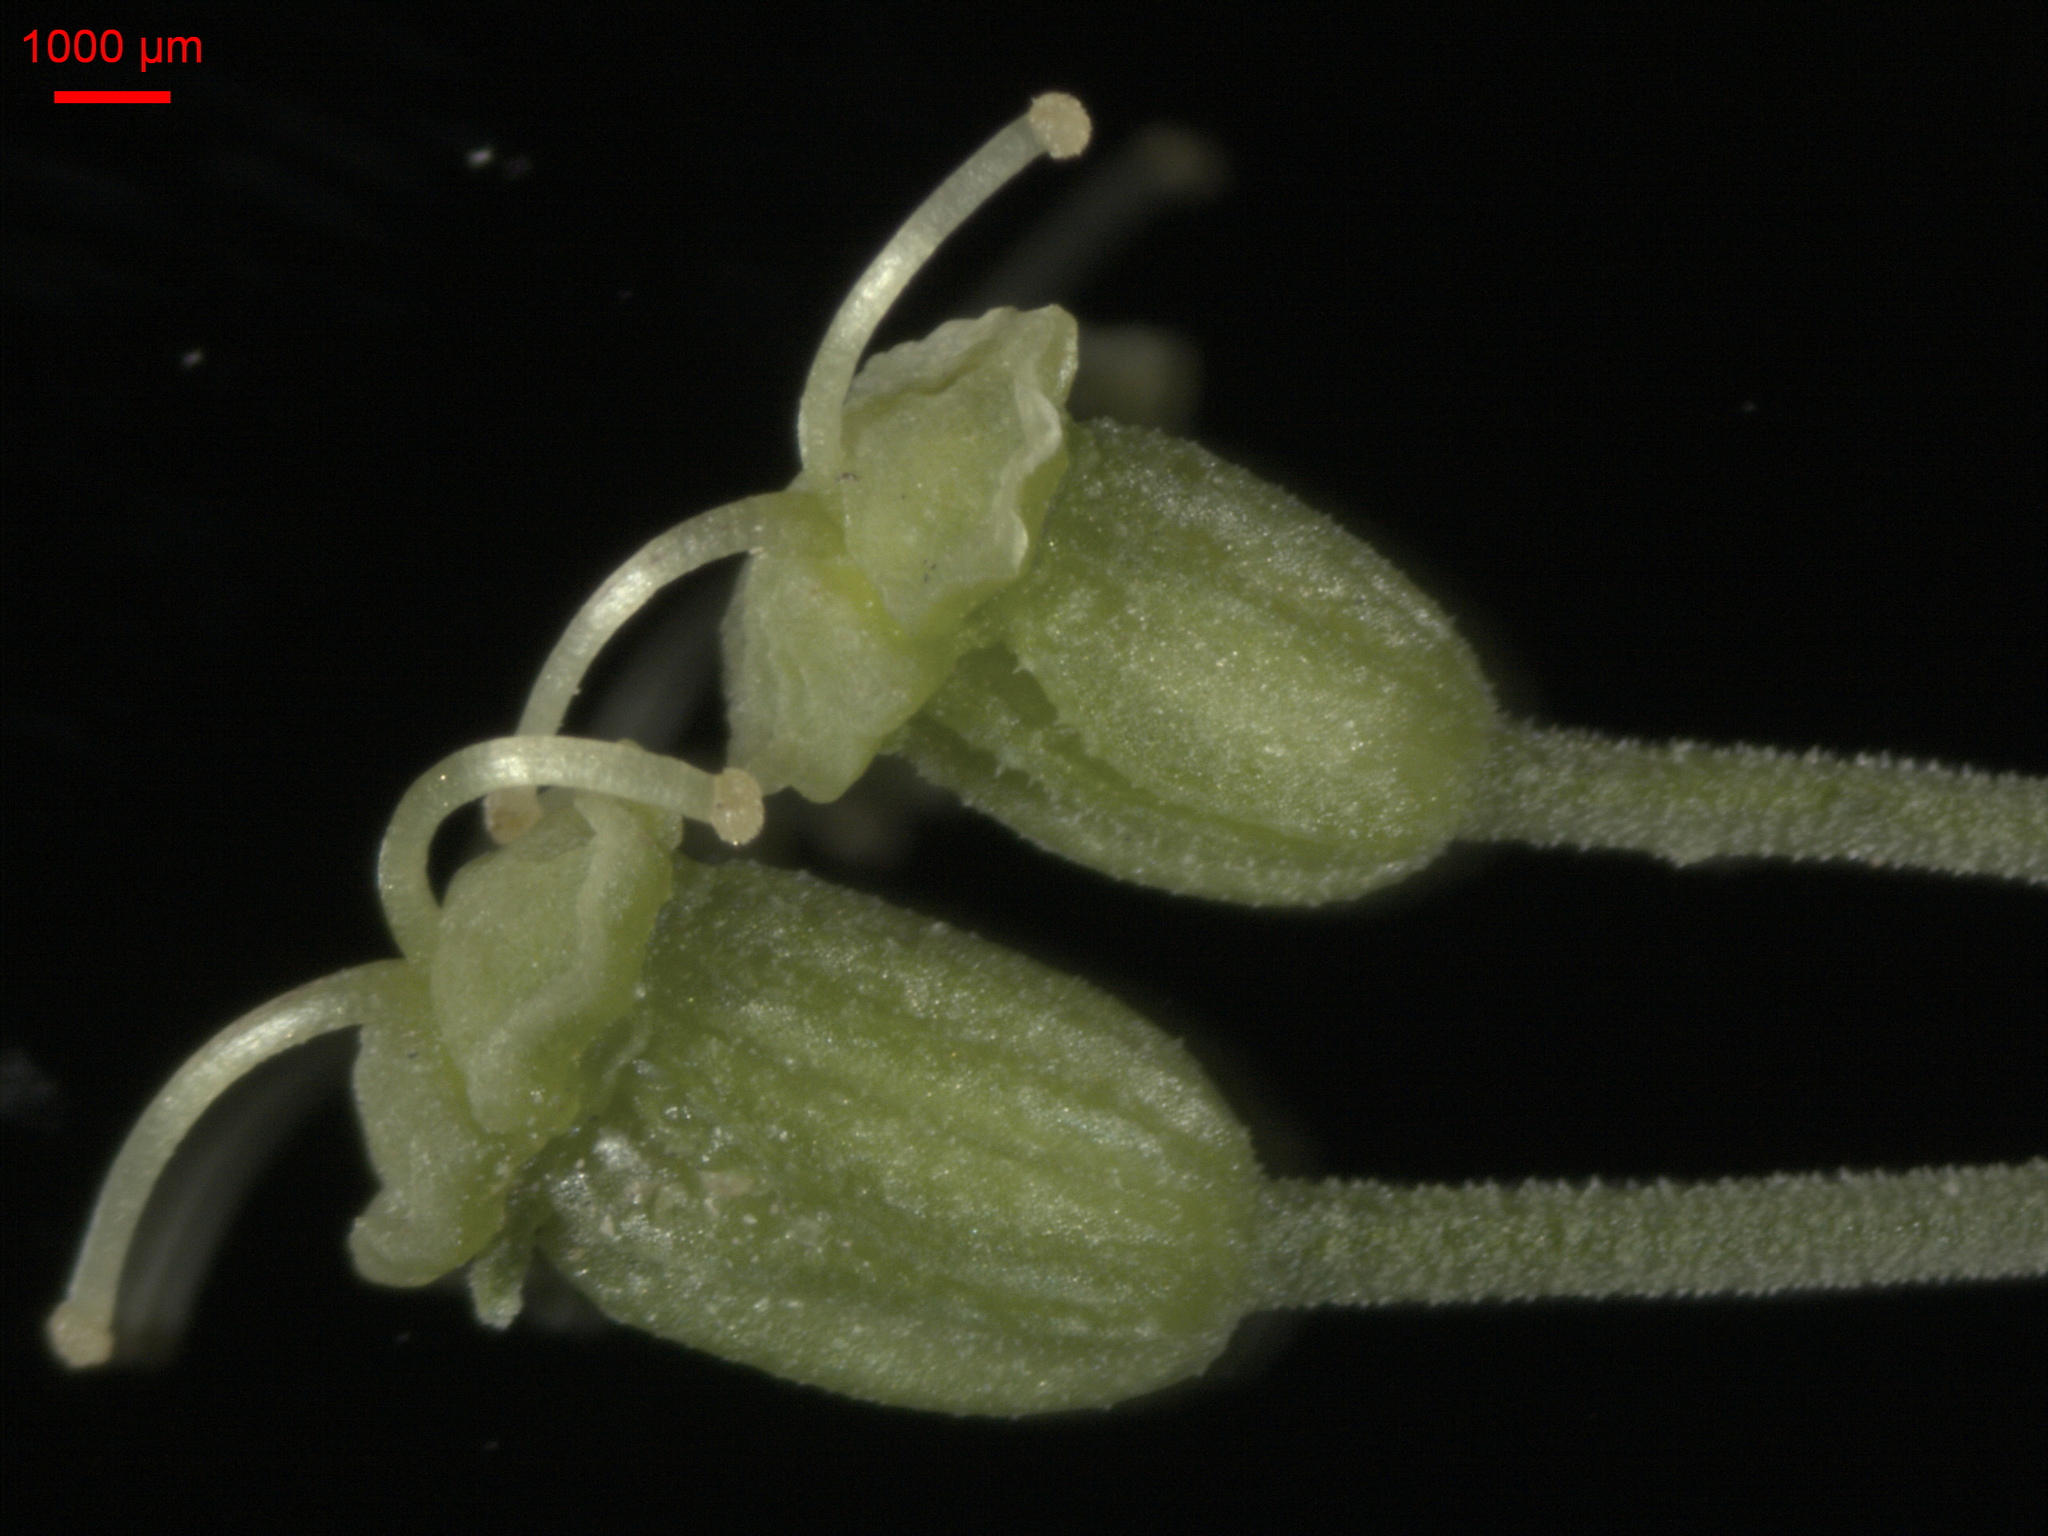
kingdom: Plantae
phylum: Tracheophyta
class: Magnoliopsida
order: Apiales
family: Apiaceae
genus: Angelica
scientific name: Angelica decurrens
